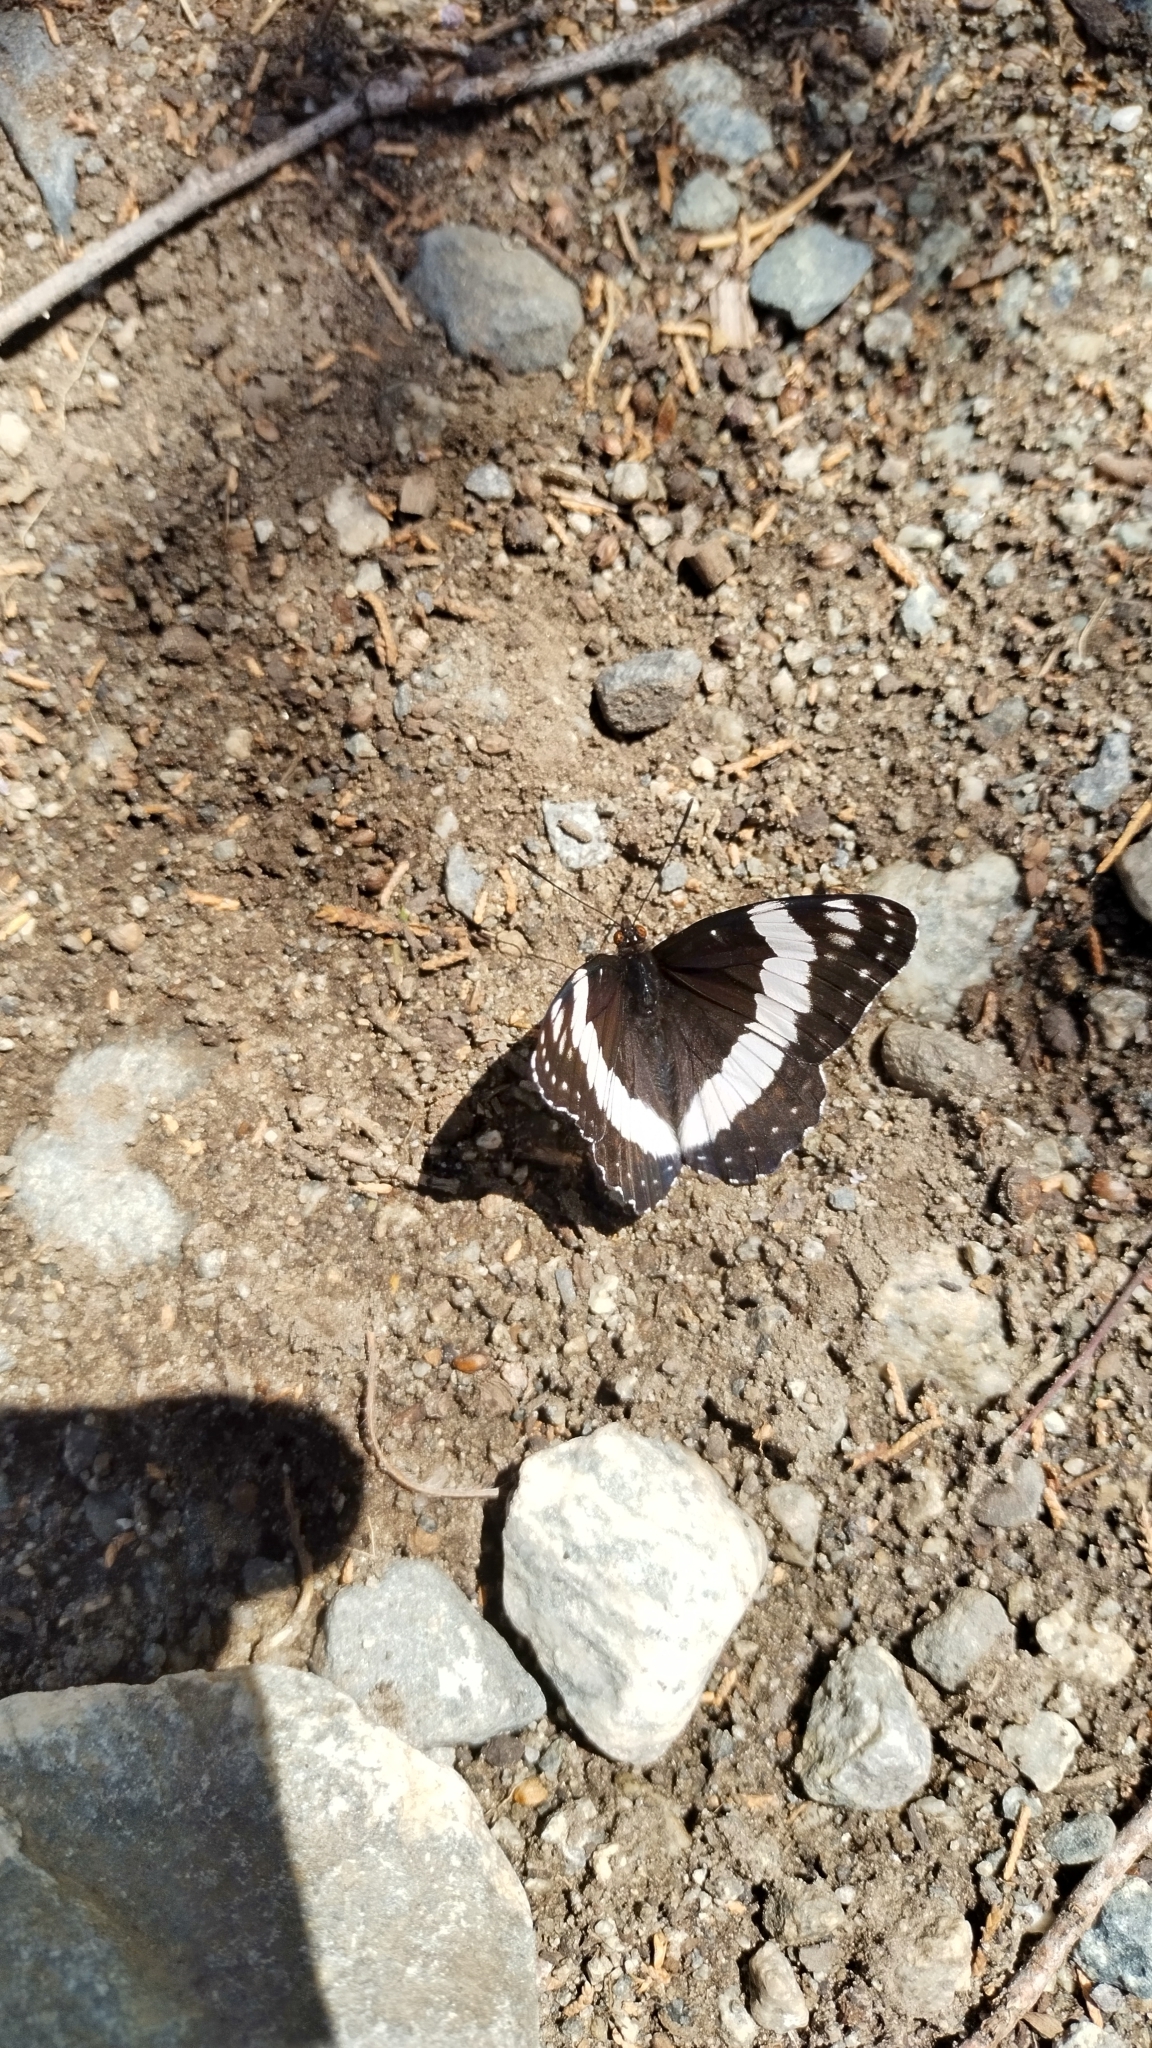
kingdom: Animalia
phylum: Arthropoda
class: Insecta
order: Lepidoptera
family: Nymphalidae
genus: Limenitis
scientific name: Limenitis weidemeyerii
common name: Weidemeyer's admiral
